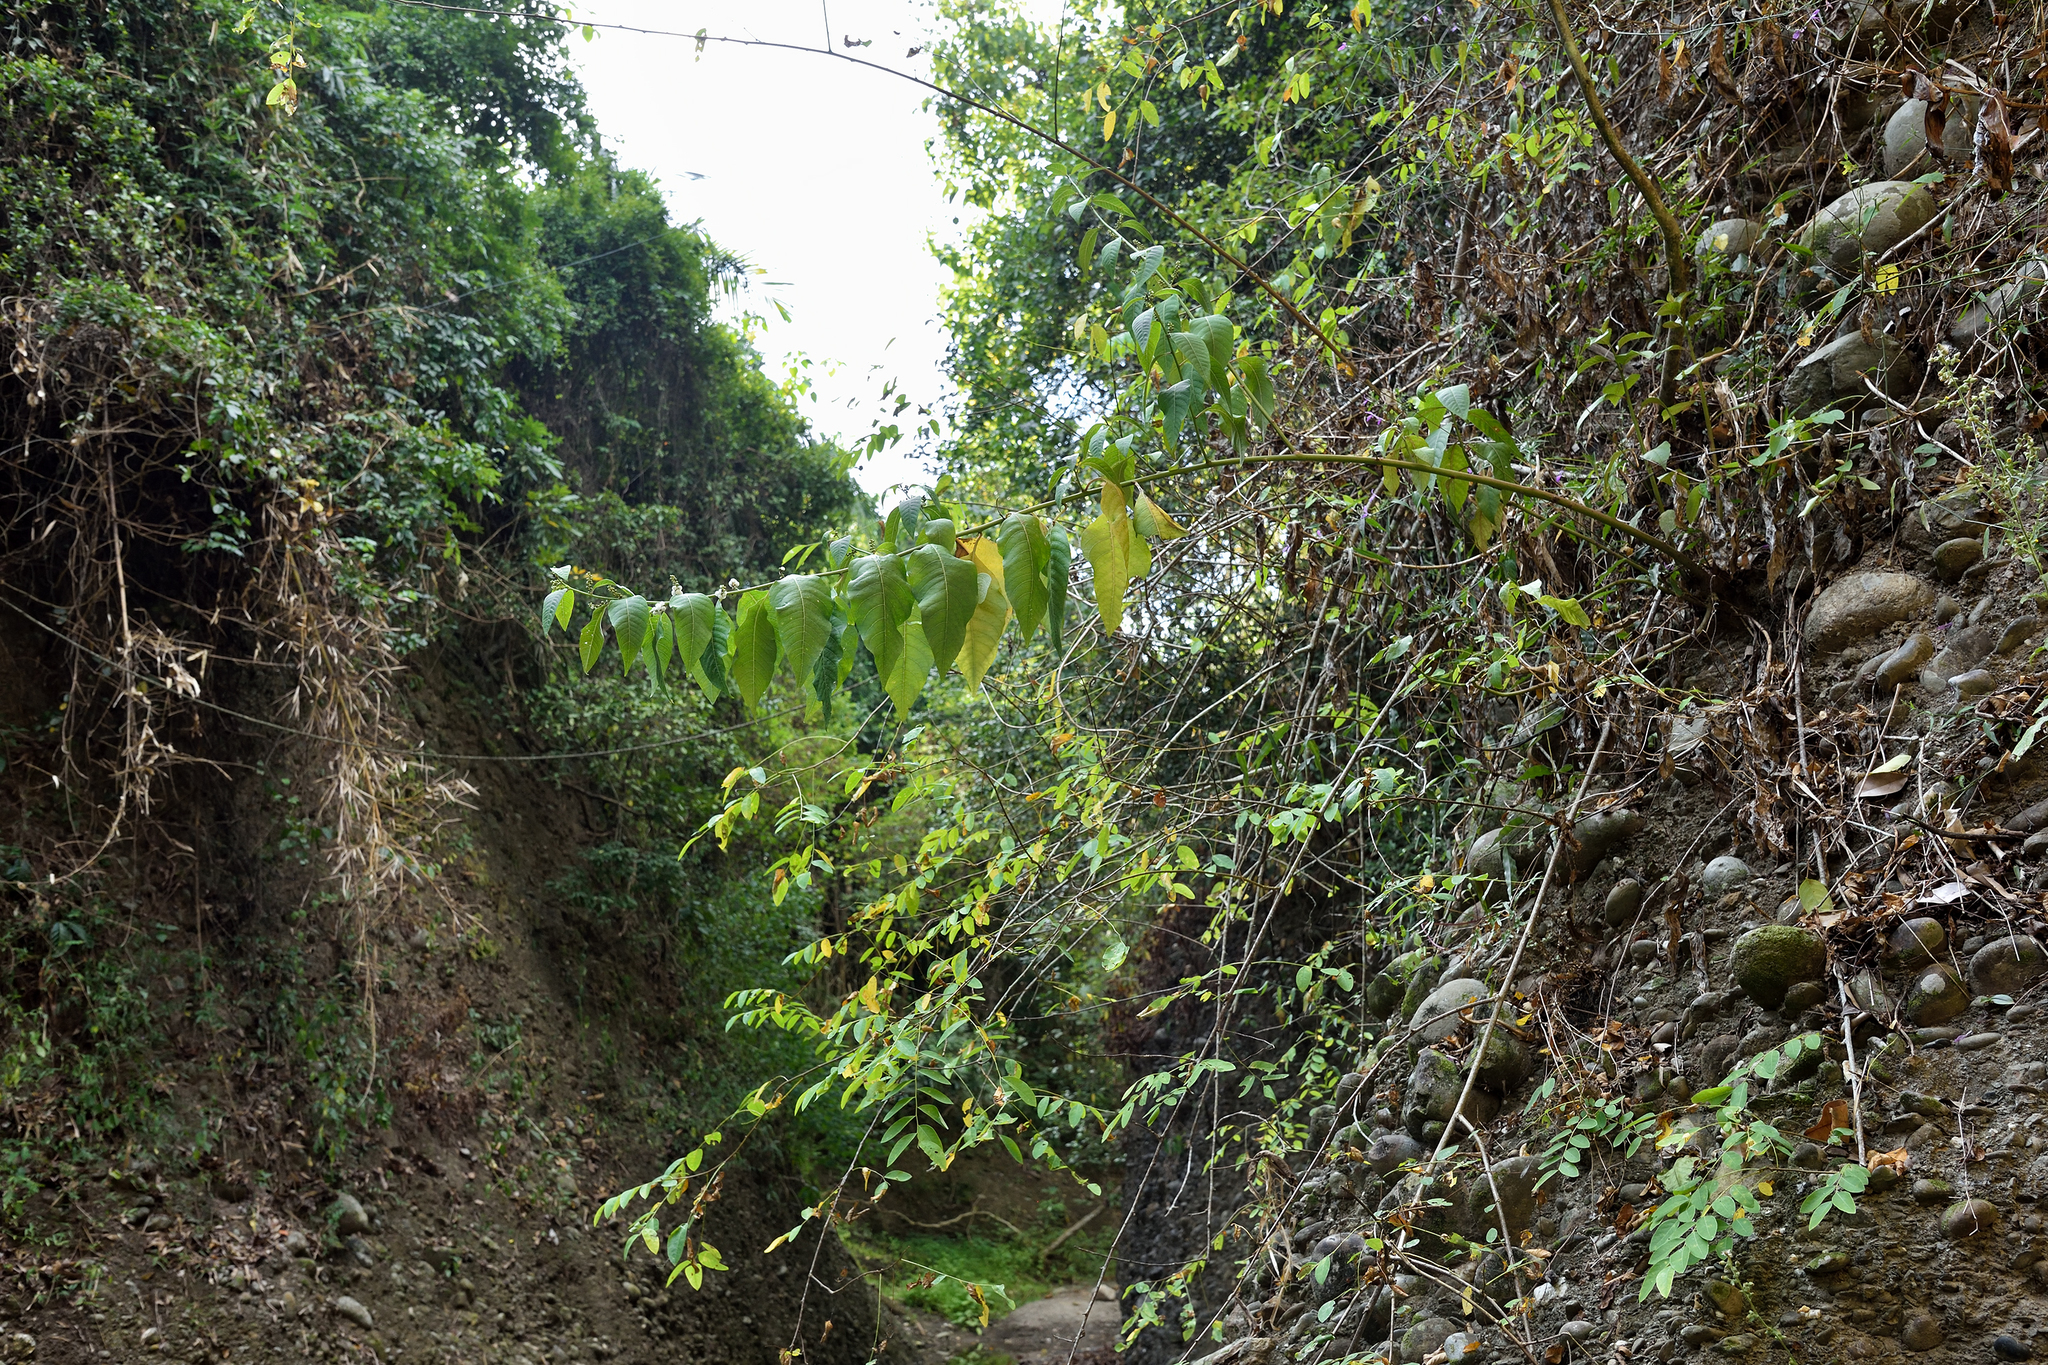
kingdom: Plantae
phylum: Tracheophyta
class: Magnoliopsida
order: Caryophyllales
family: Amaranthaceae
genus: Deeringia
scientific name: Deeringia polysperma
